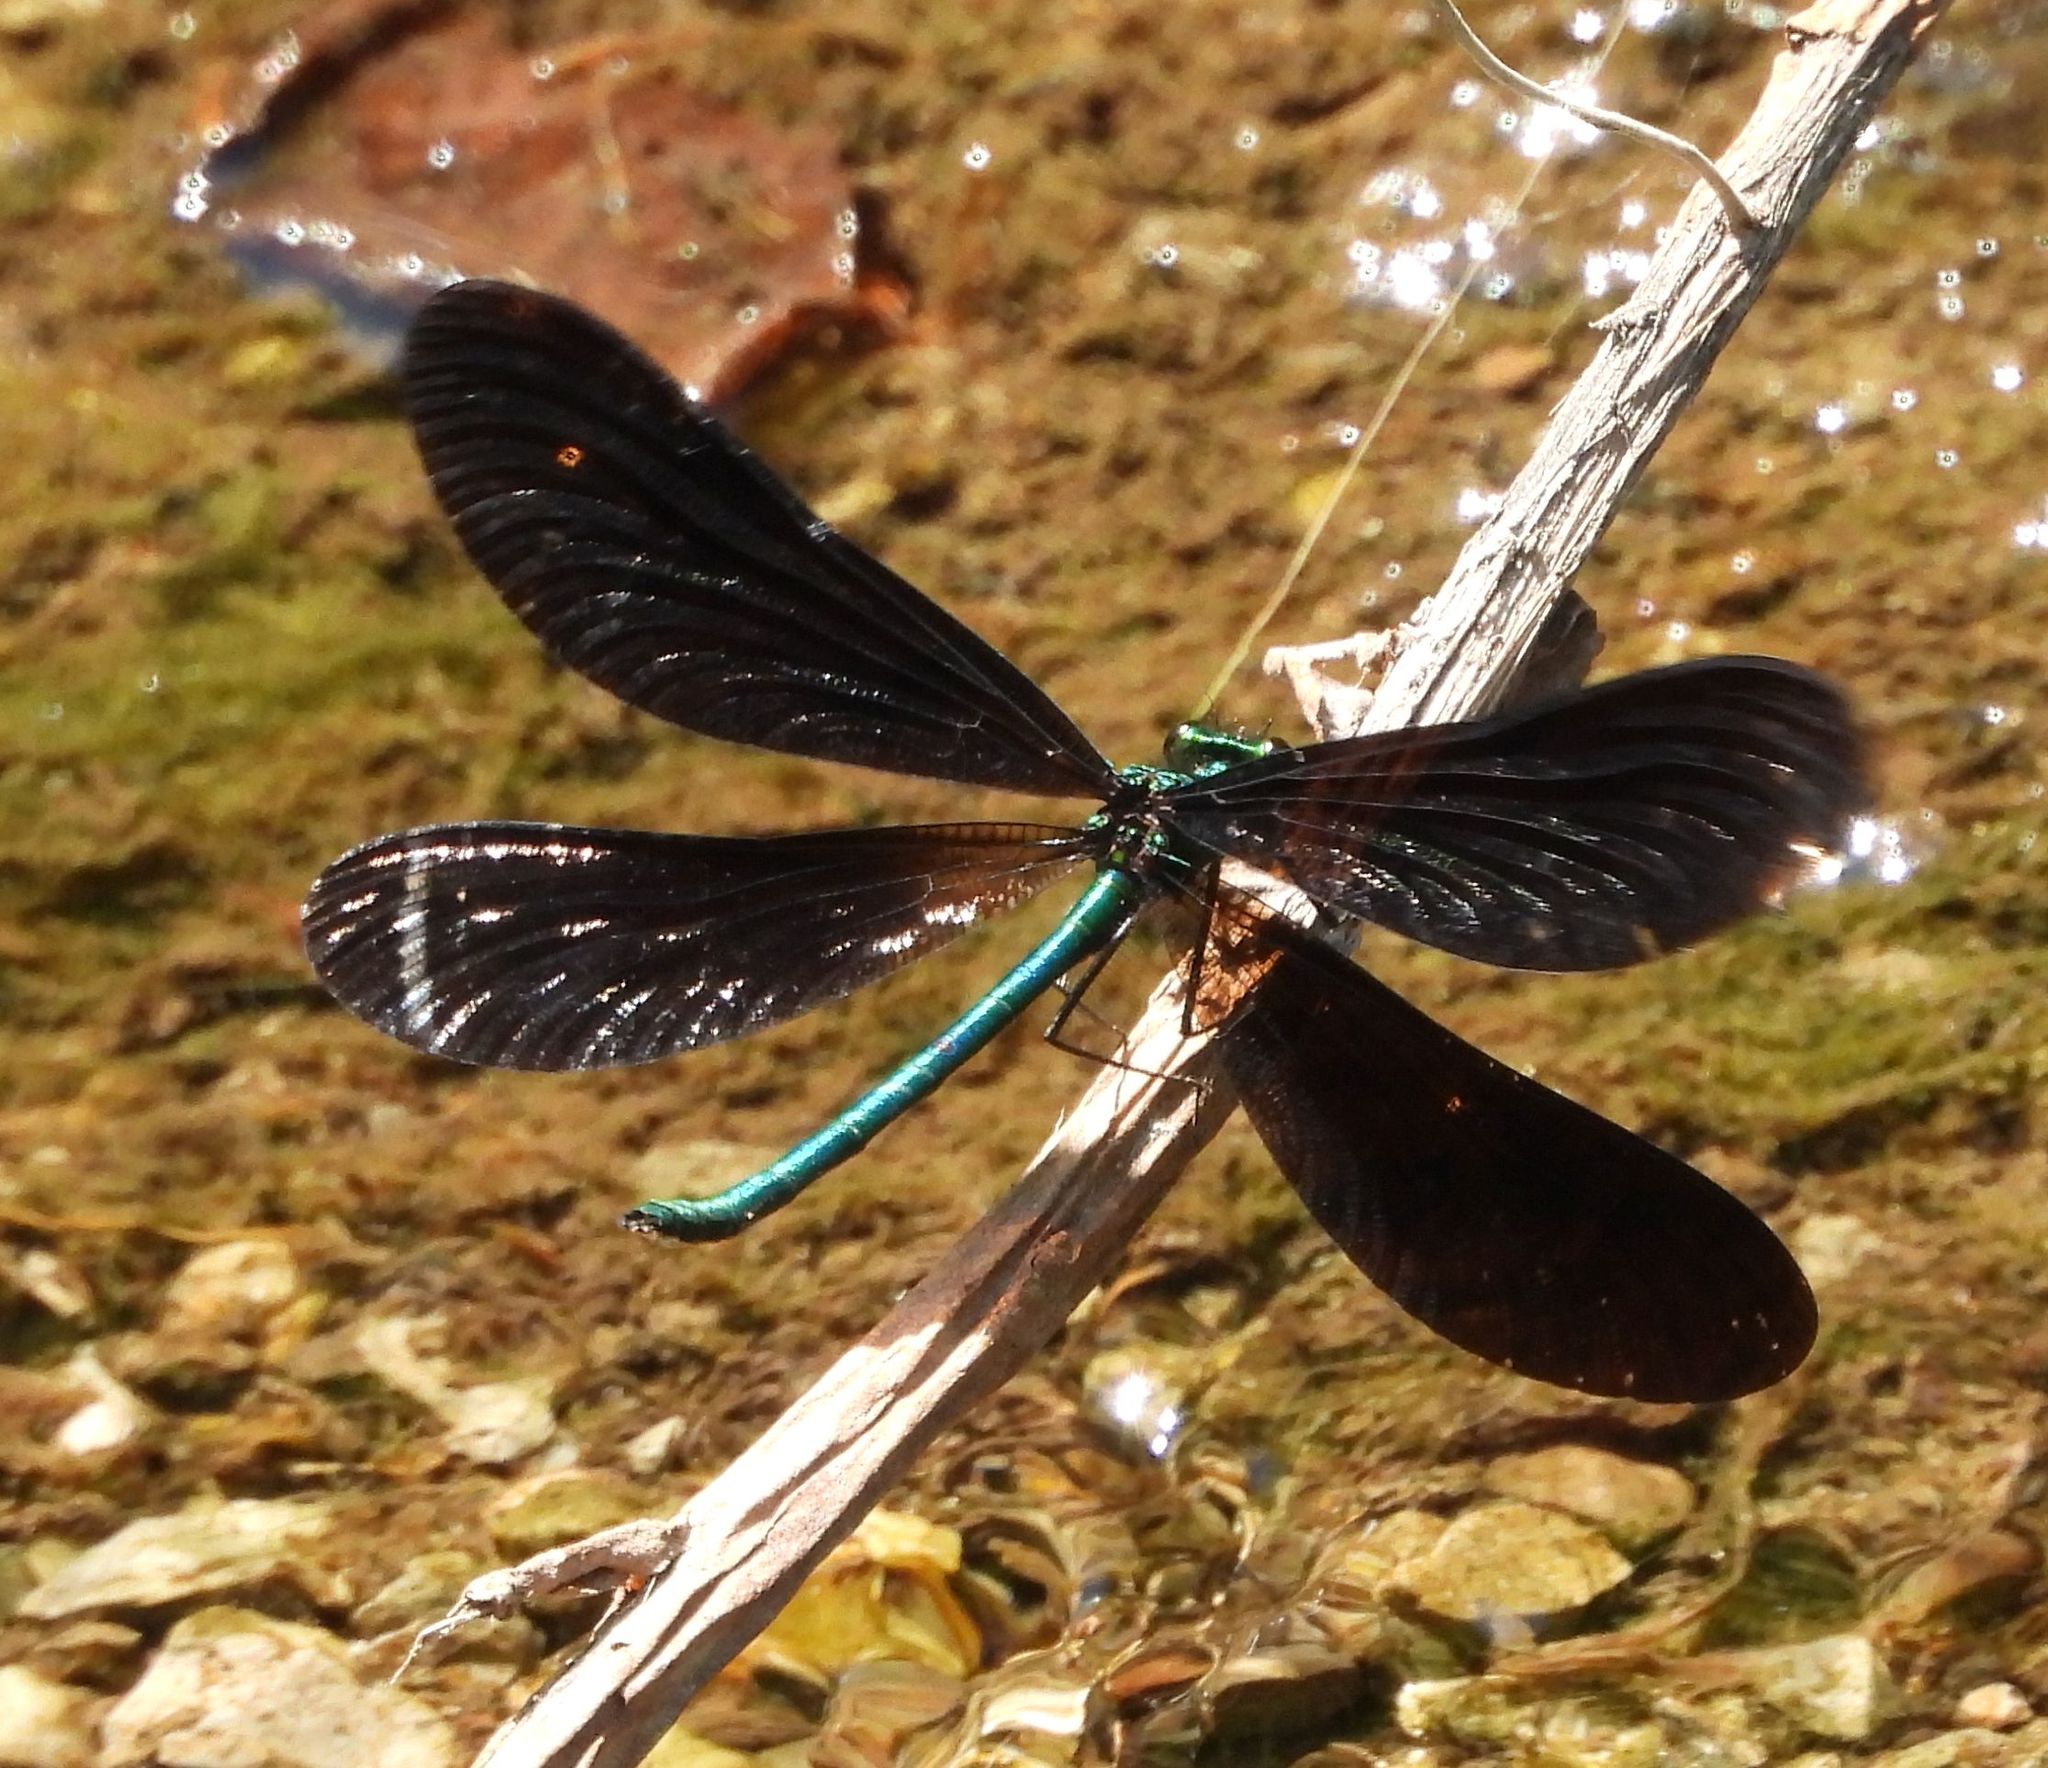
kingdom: Animalia
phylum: Arthropoda
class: Insecta
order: Odonata
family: Calopterygidae
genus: Calopteryx
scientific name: Calopteryx maculata
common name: Ebony jewelwing
